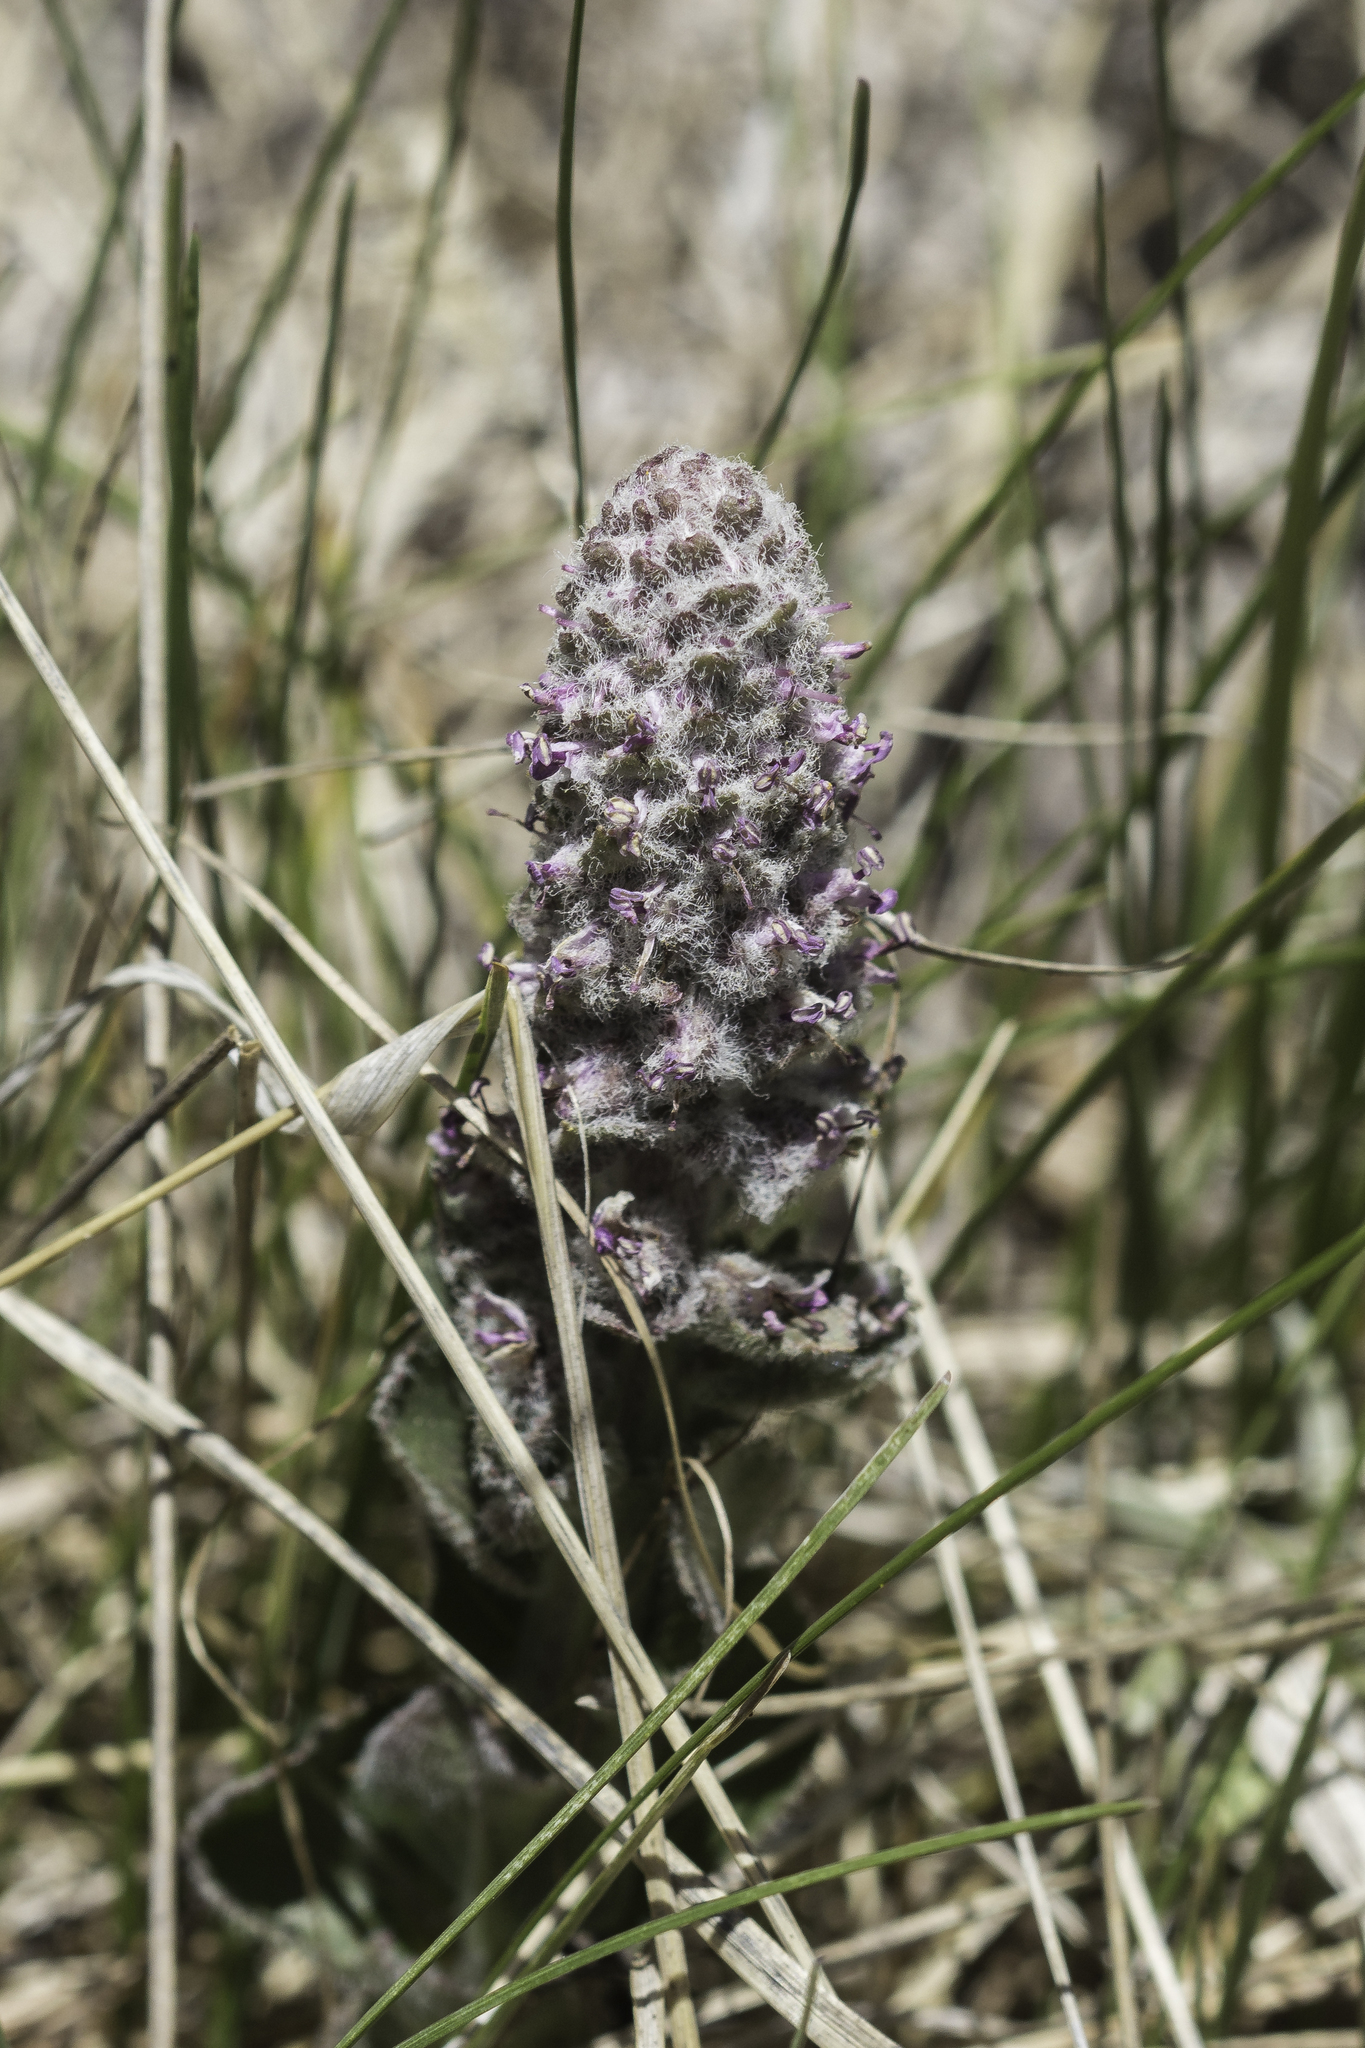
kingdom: Plantae
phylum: Tracheophyta
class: Magnoliopsida
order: Lamiales
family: Plantaginaceae
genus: Veronica
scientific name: Veronica plantaginea
